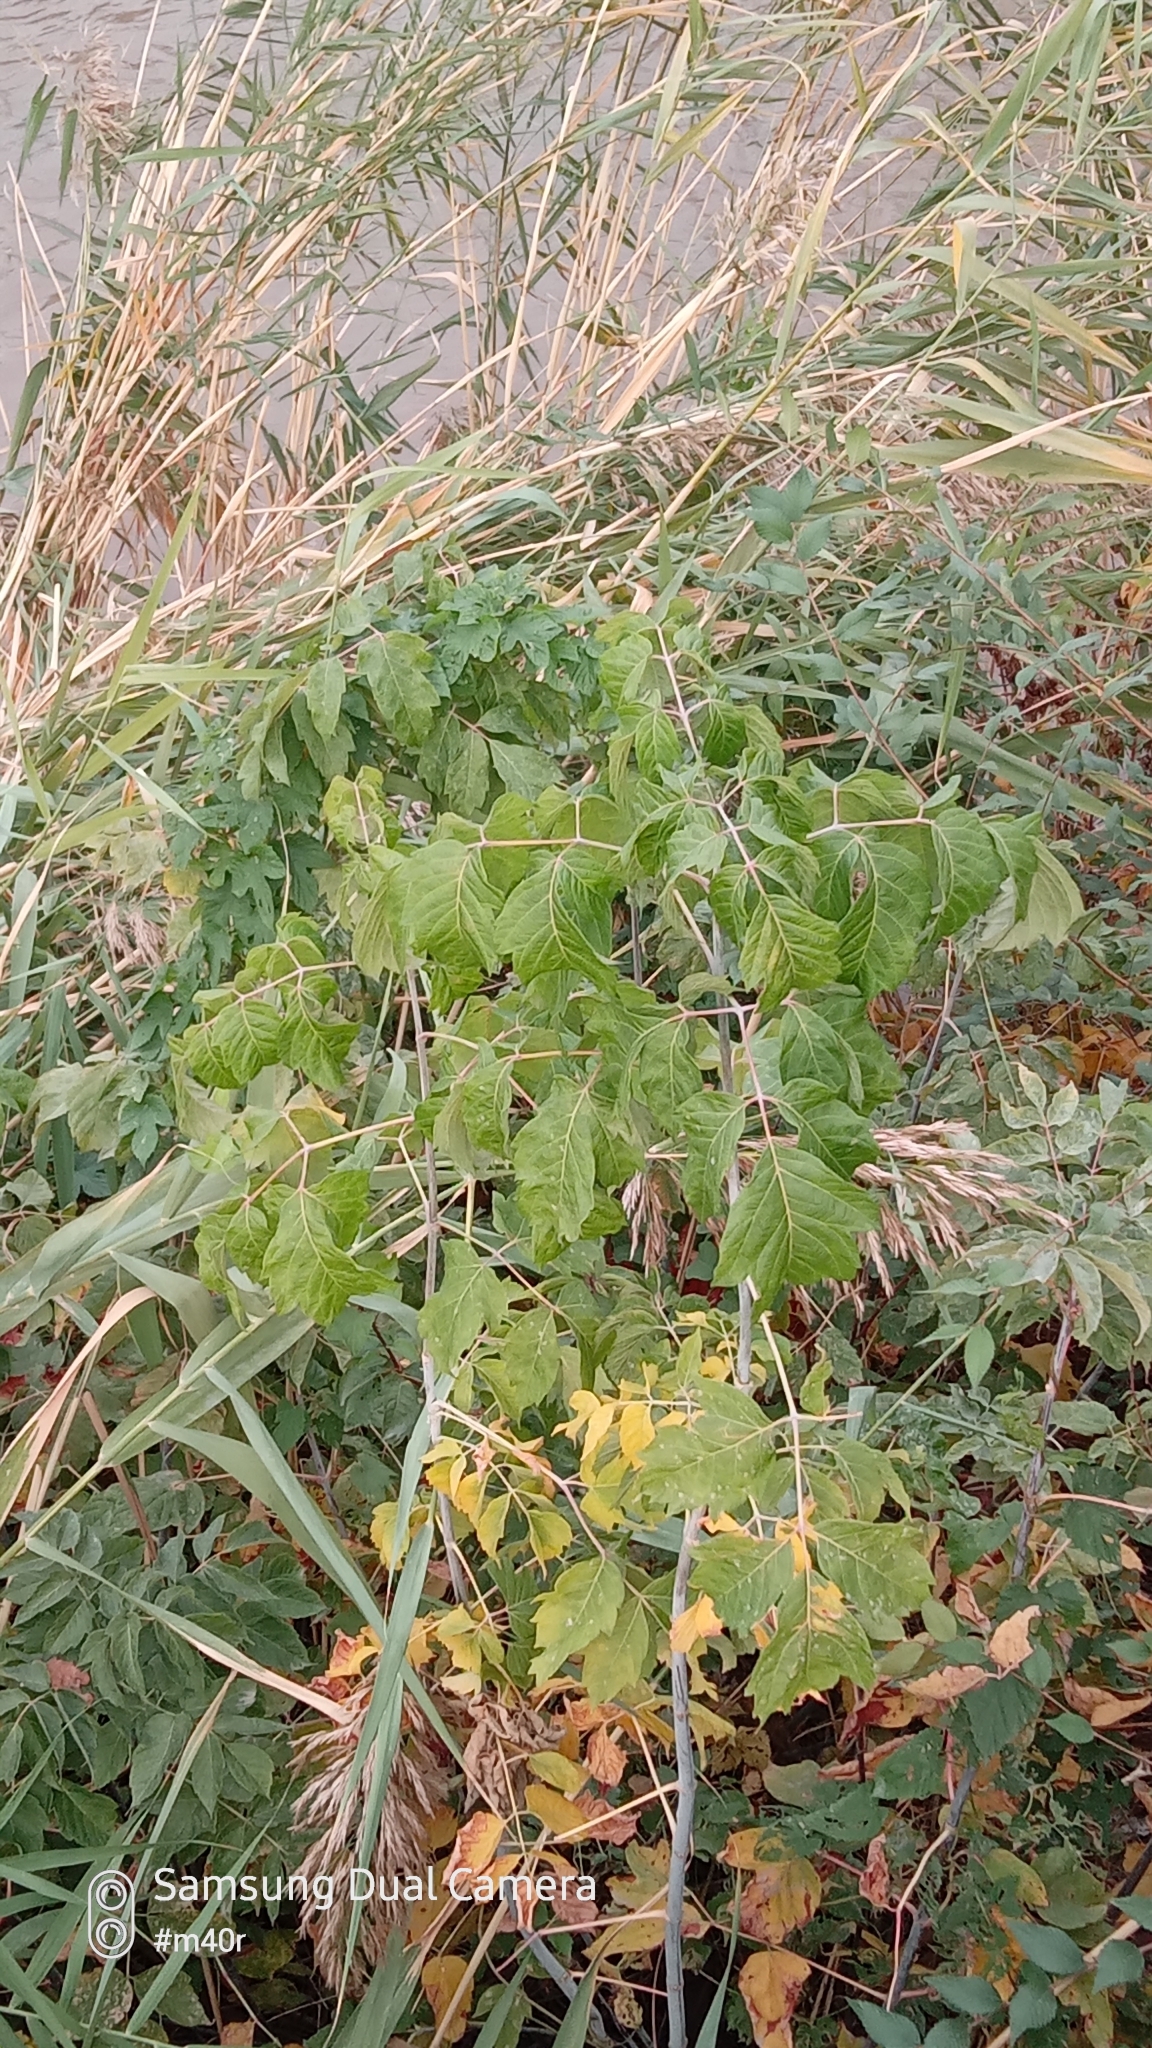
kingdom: Plantae
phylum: Tracheophyta
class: Magnoliopsida
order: Sapindales
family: Sapindaceae
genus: Acer
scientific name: Acer negundo
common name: Ashleaf maple
